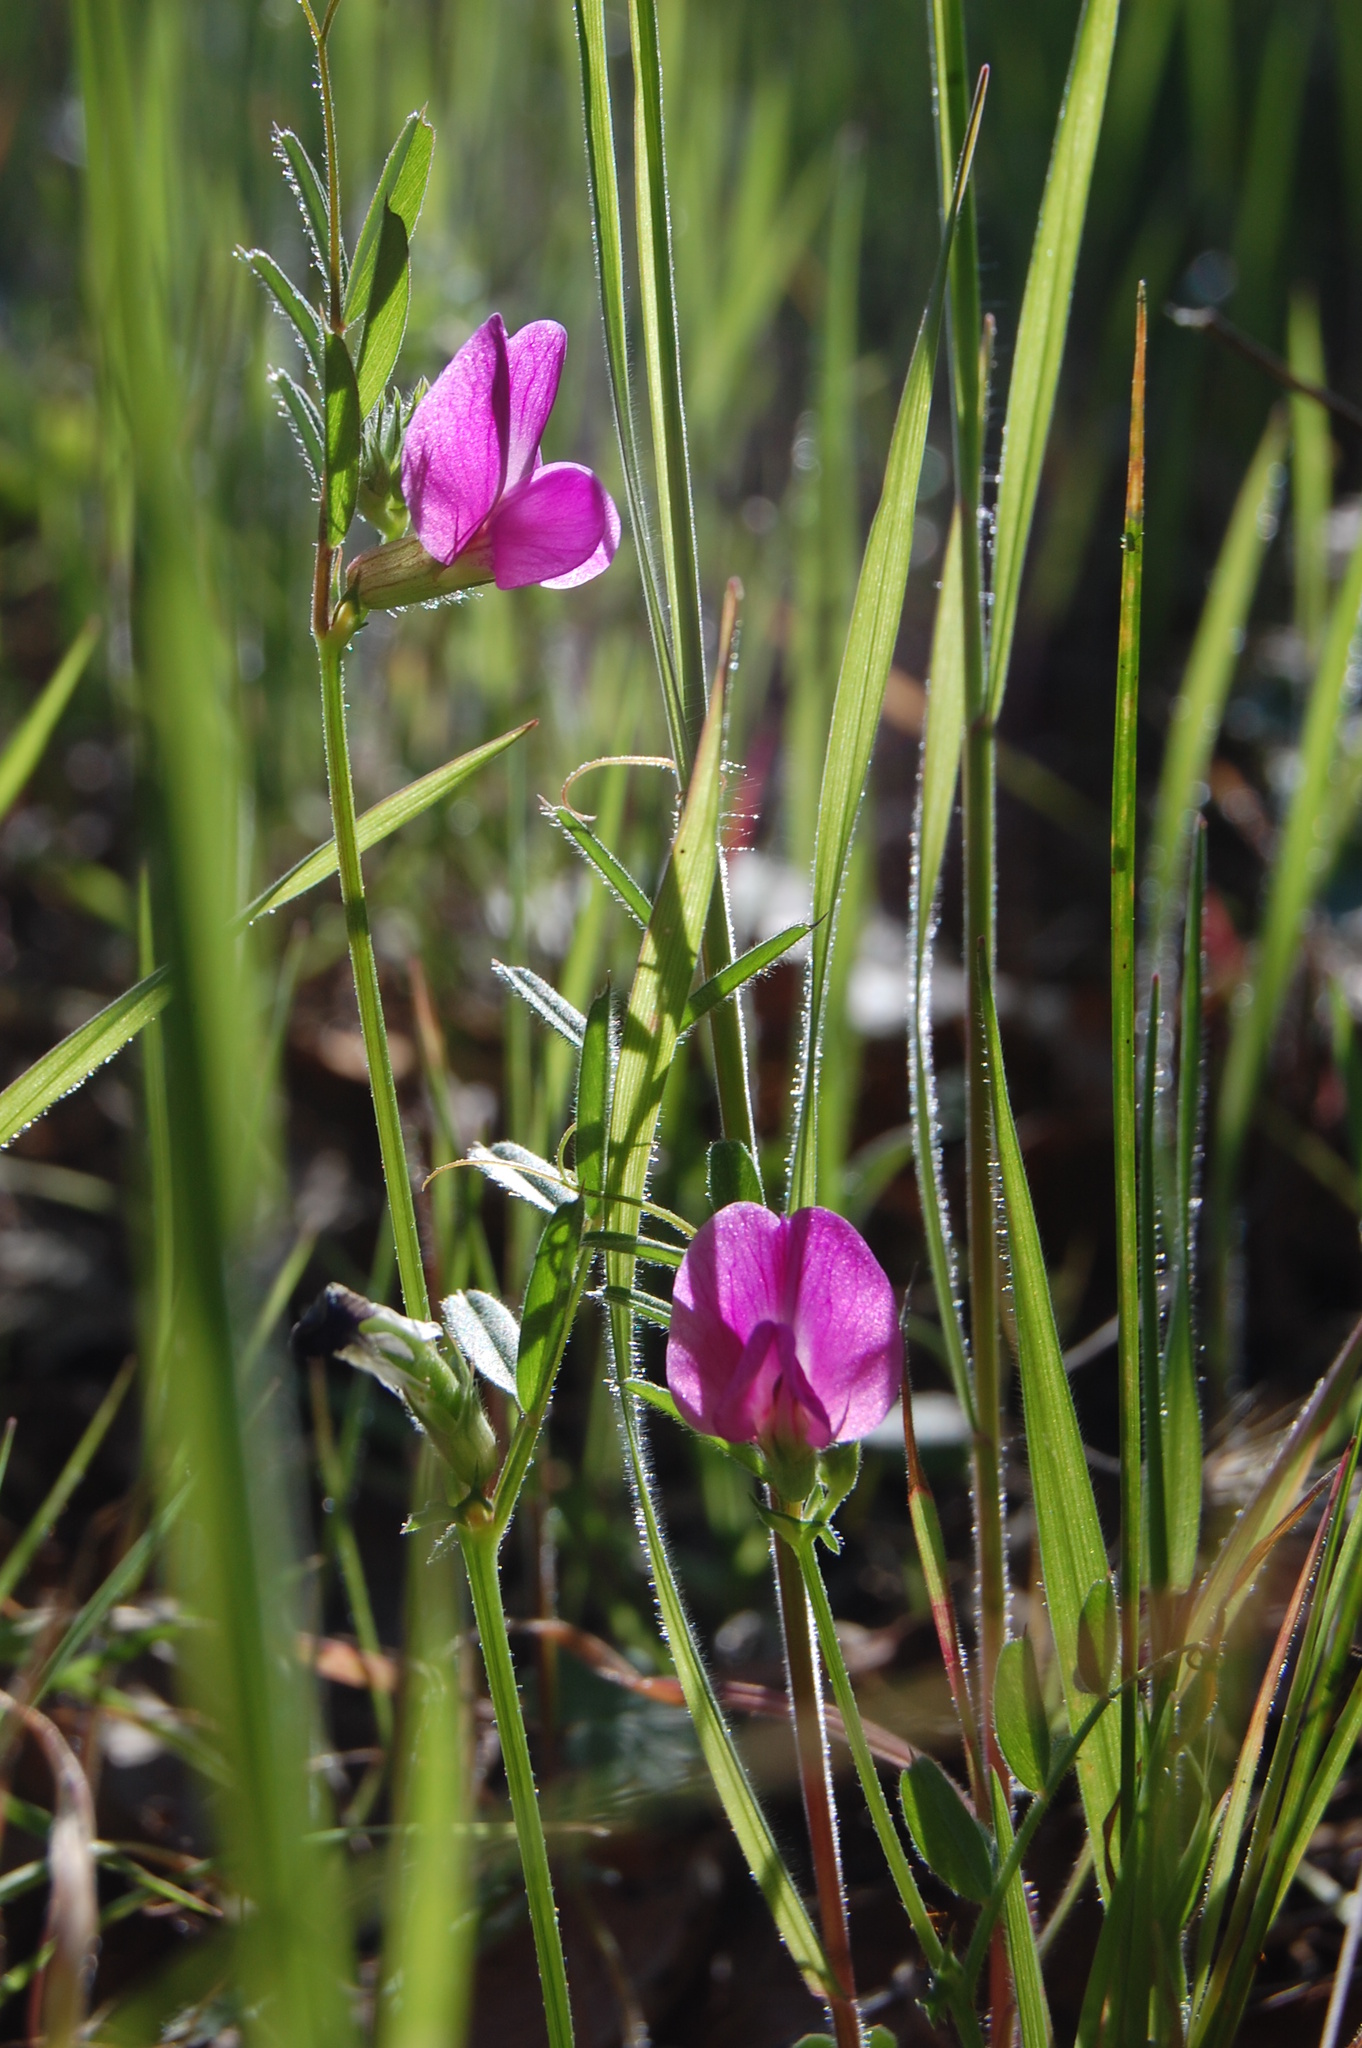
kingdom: Plantae
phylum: Tracheophyta
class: Magnoliopsida
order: Fabales
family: Fabaceae
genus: Vicia
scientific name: Vicia sativa
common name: Garden vetch
